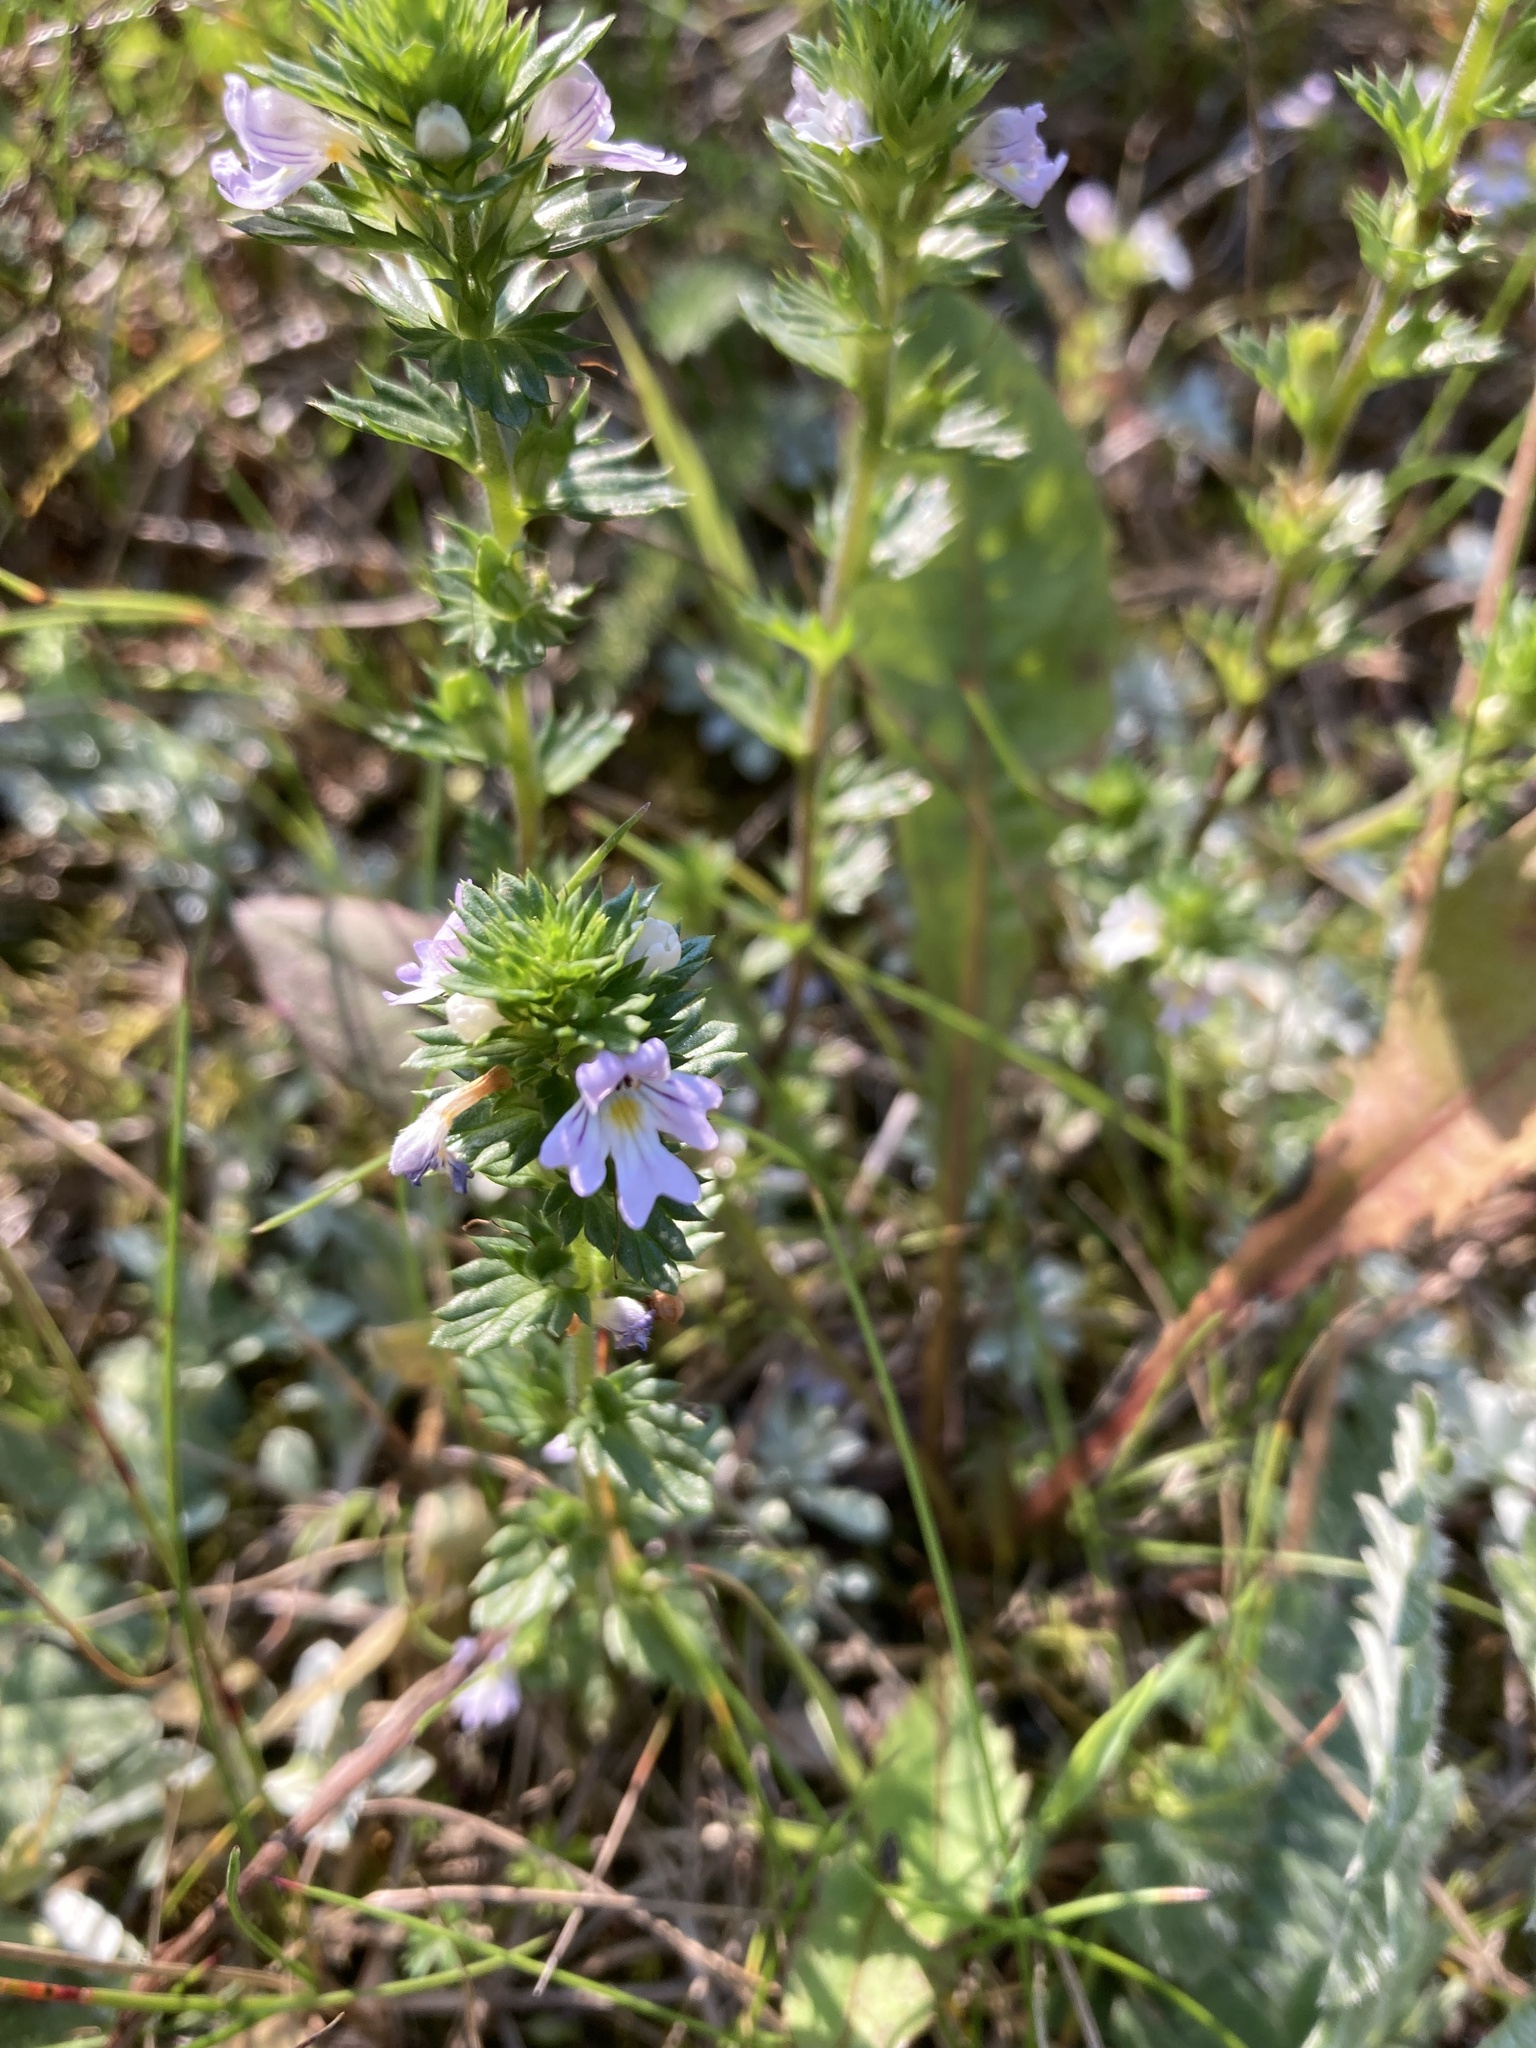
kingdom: Plantae
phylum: Tracheophyta
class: Magnoliopsida
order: Lamiales
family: Orobanchaceae
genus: Euphrasia
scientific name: Euphrasia nemorosa
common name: Common eyebright
